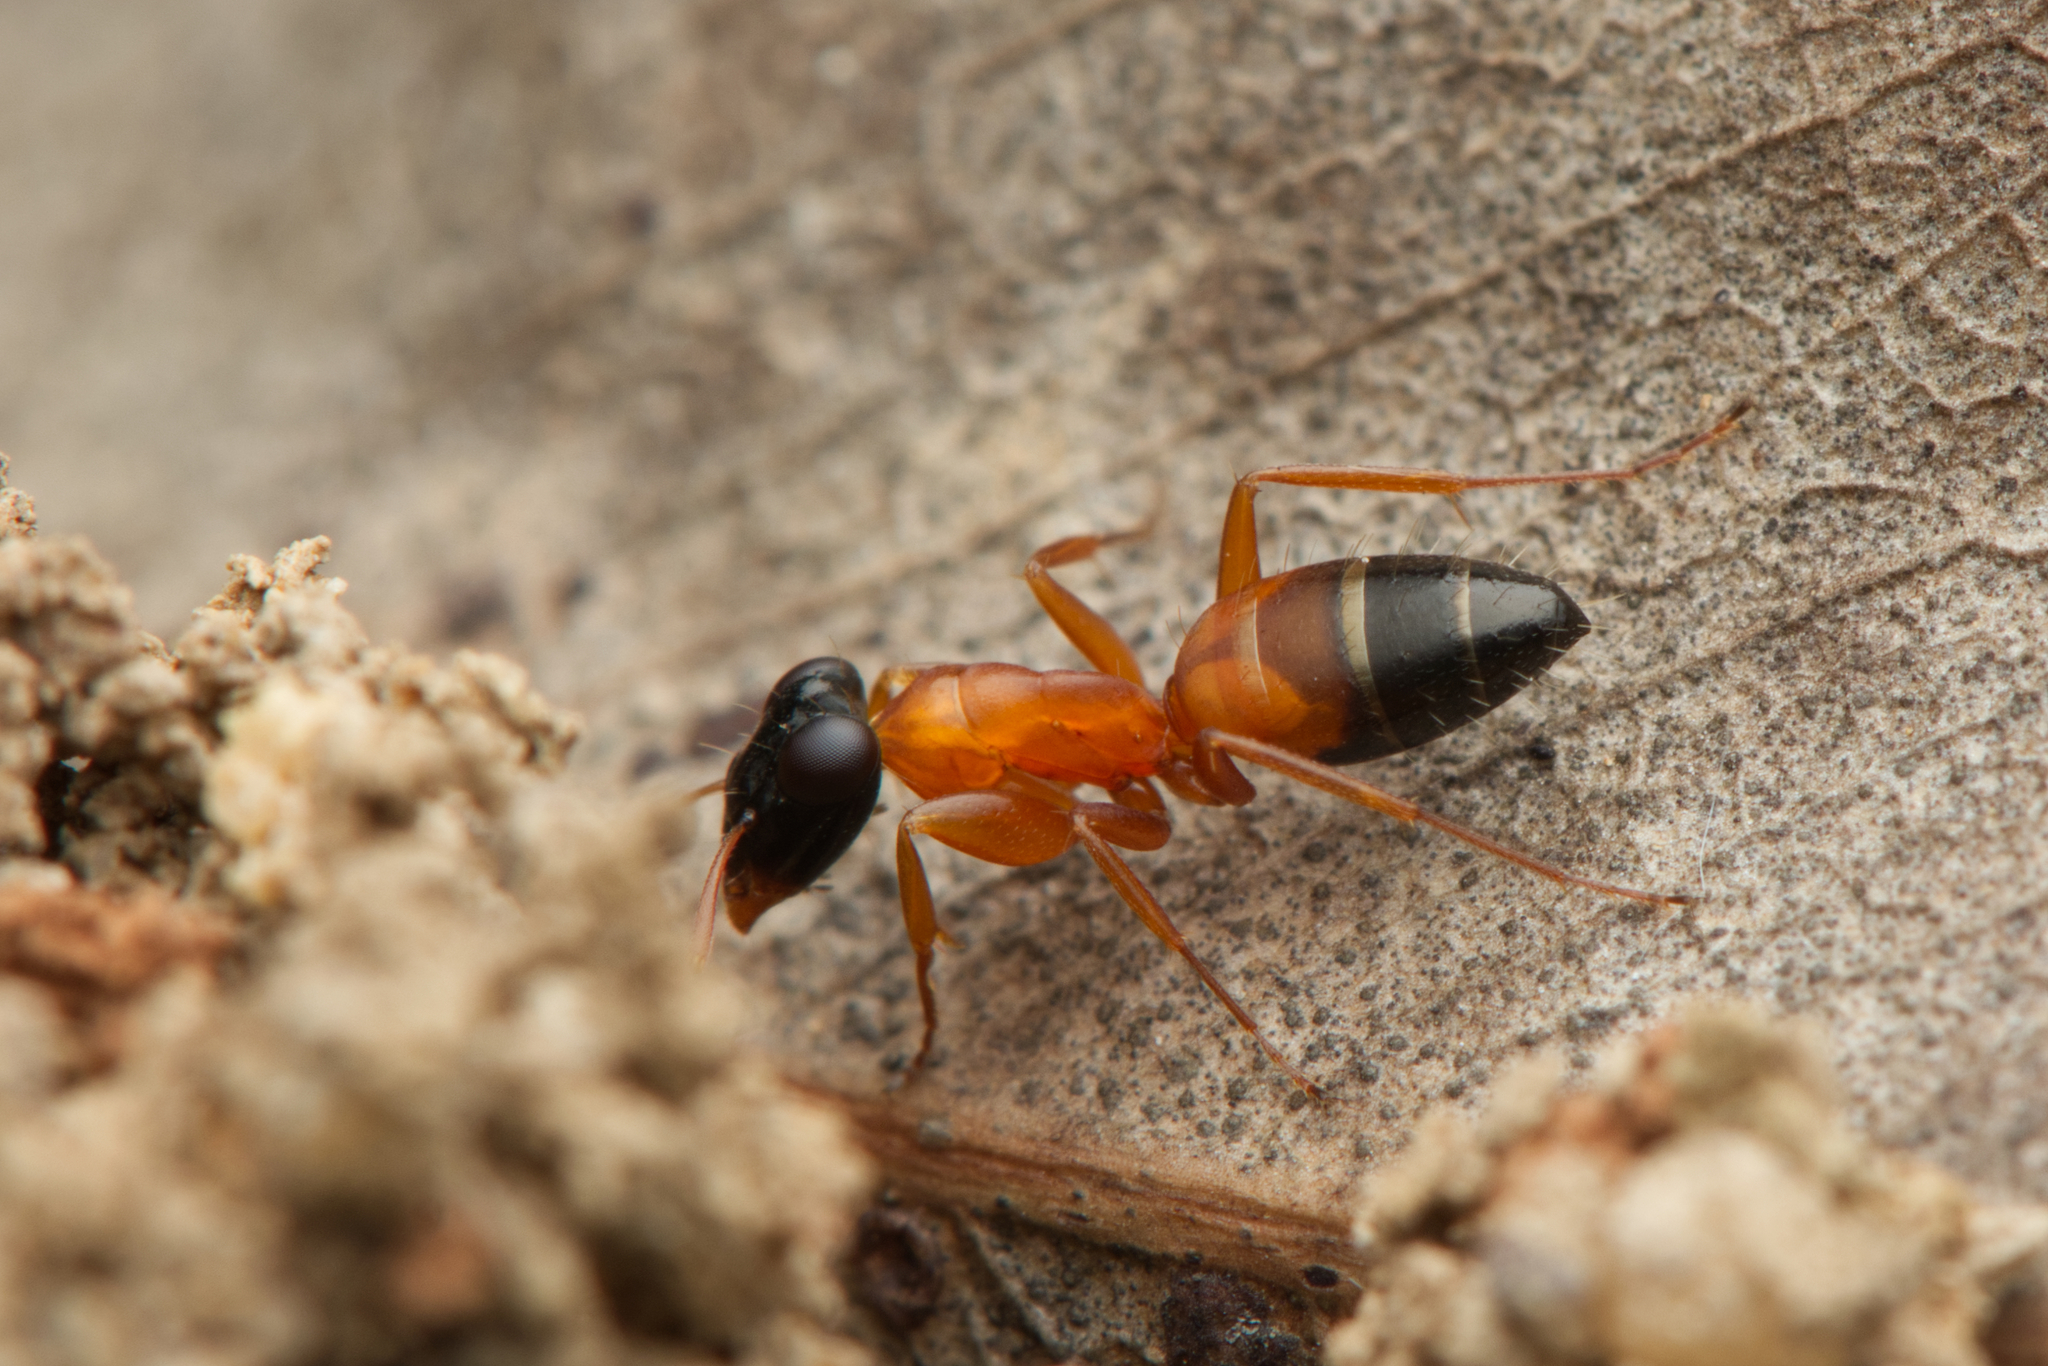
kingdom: Animalia
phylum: Arthropoda
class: Insecta
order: Hymenoptera
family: Formicidae
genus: Opisthopsis
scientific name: Opisthopsis rufithorax
